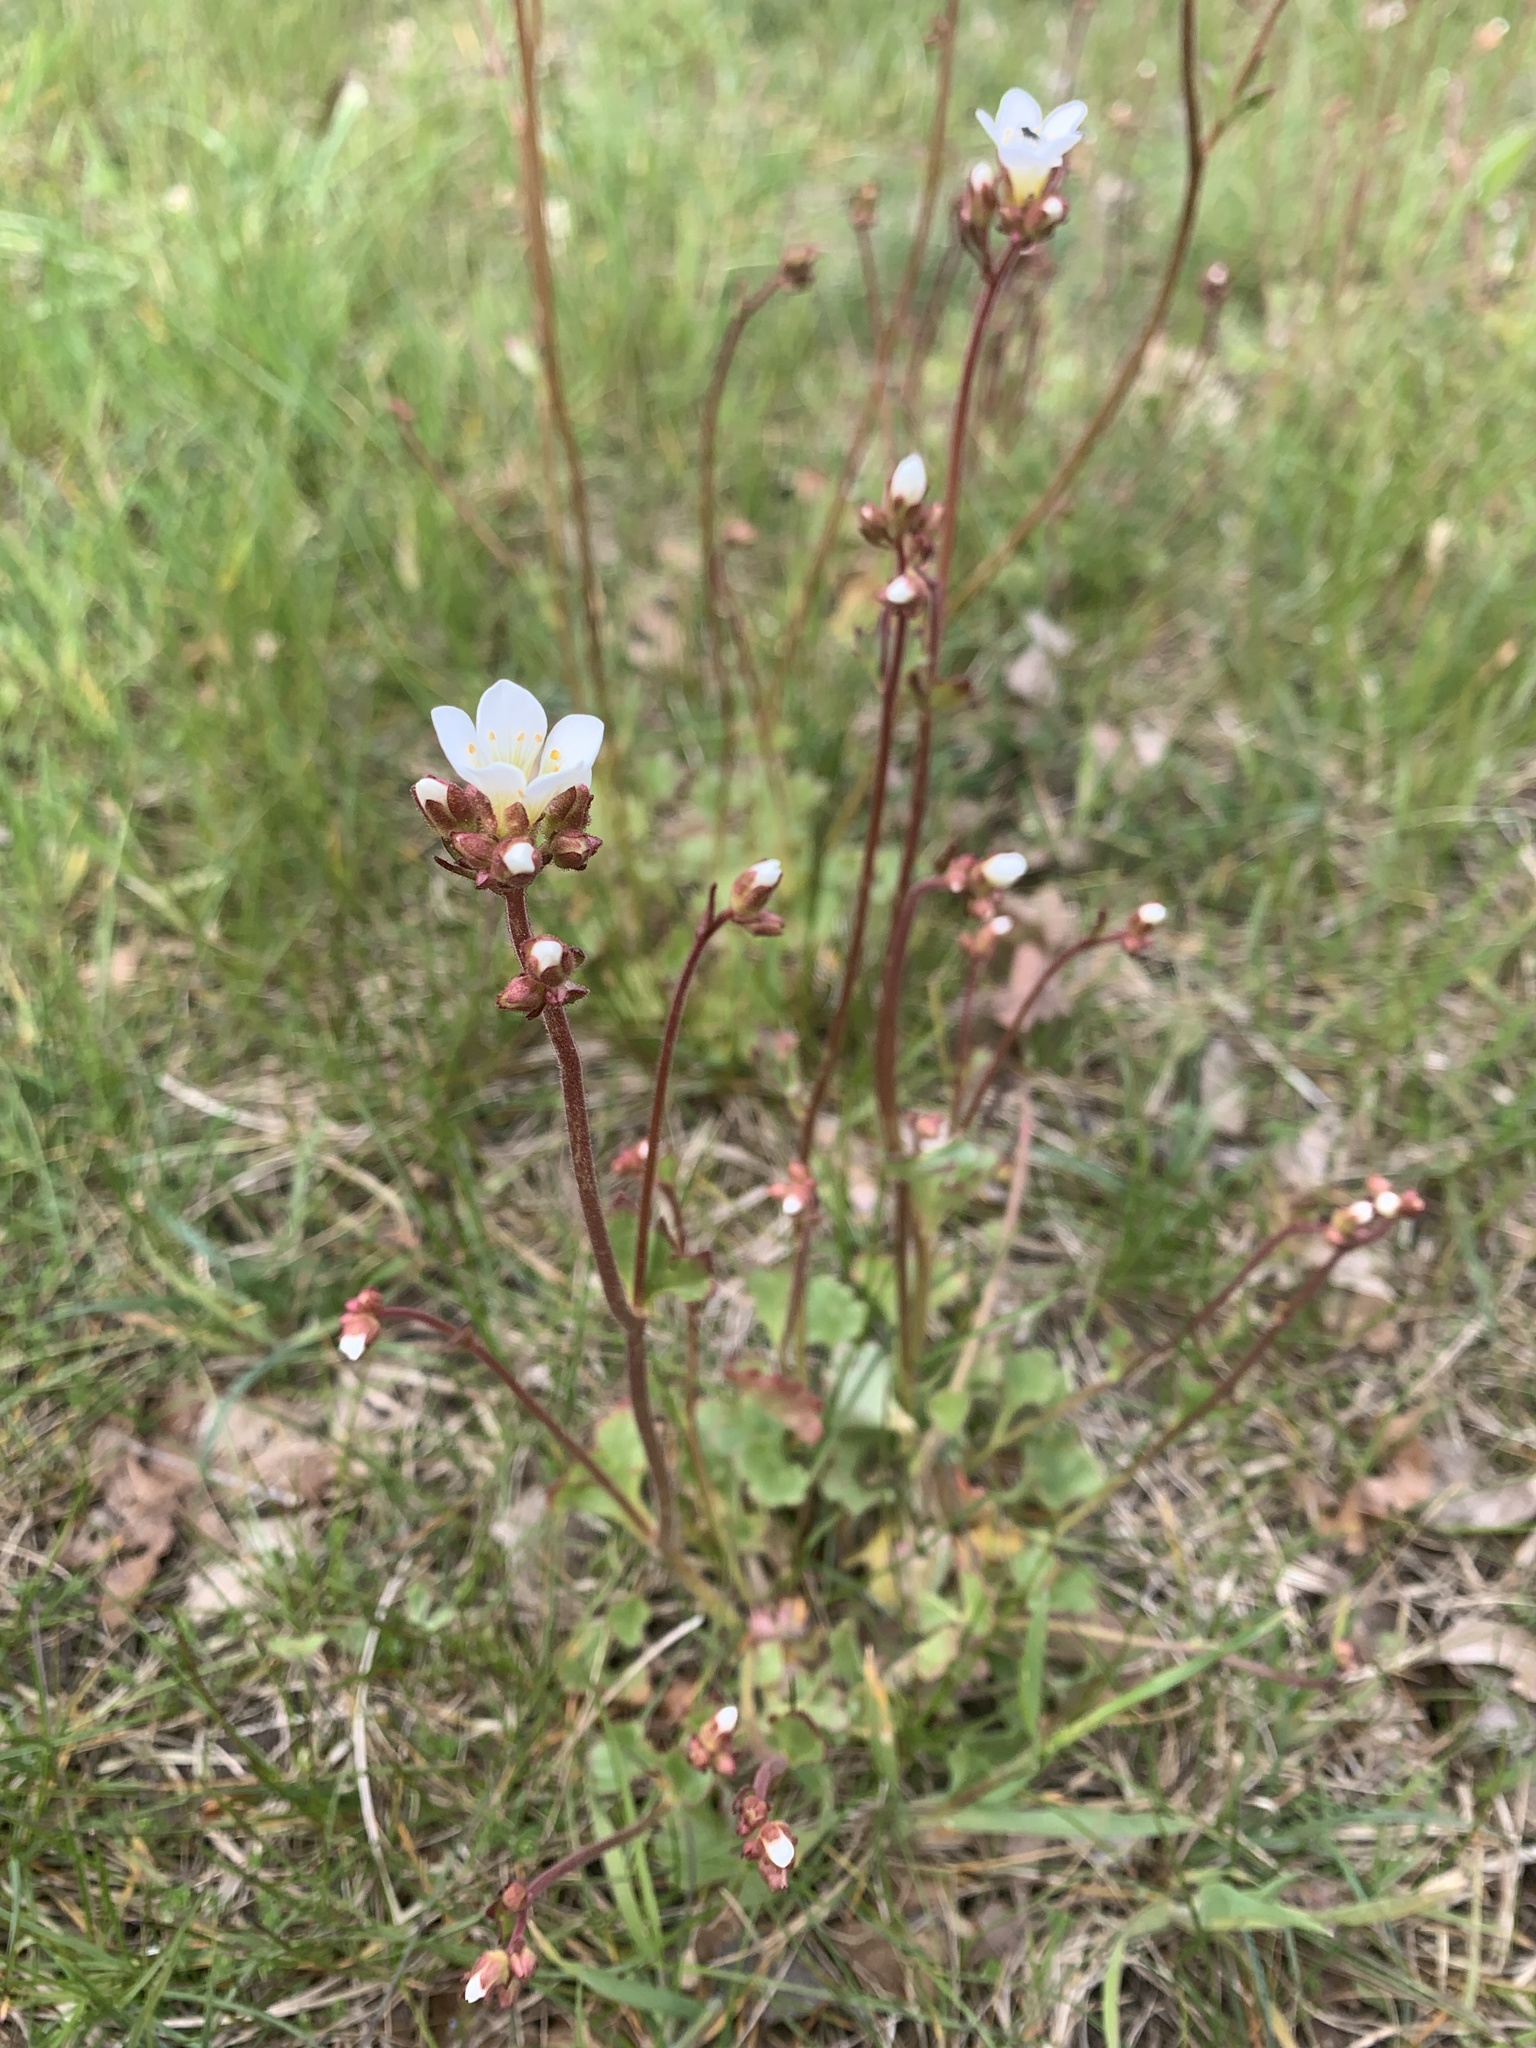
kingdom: Plantae
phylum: Tracheophyta
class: Magnoliopsida
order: Saxifragales
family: Saxifragaceae
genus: Saxifraga
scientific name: Saxifraga granulata
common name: Meadow saxifrage
